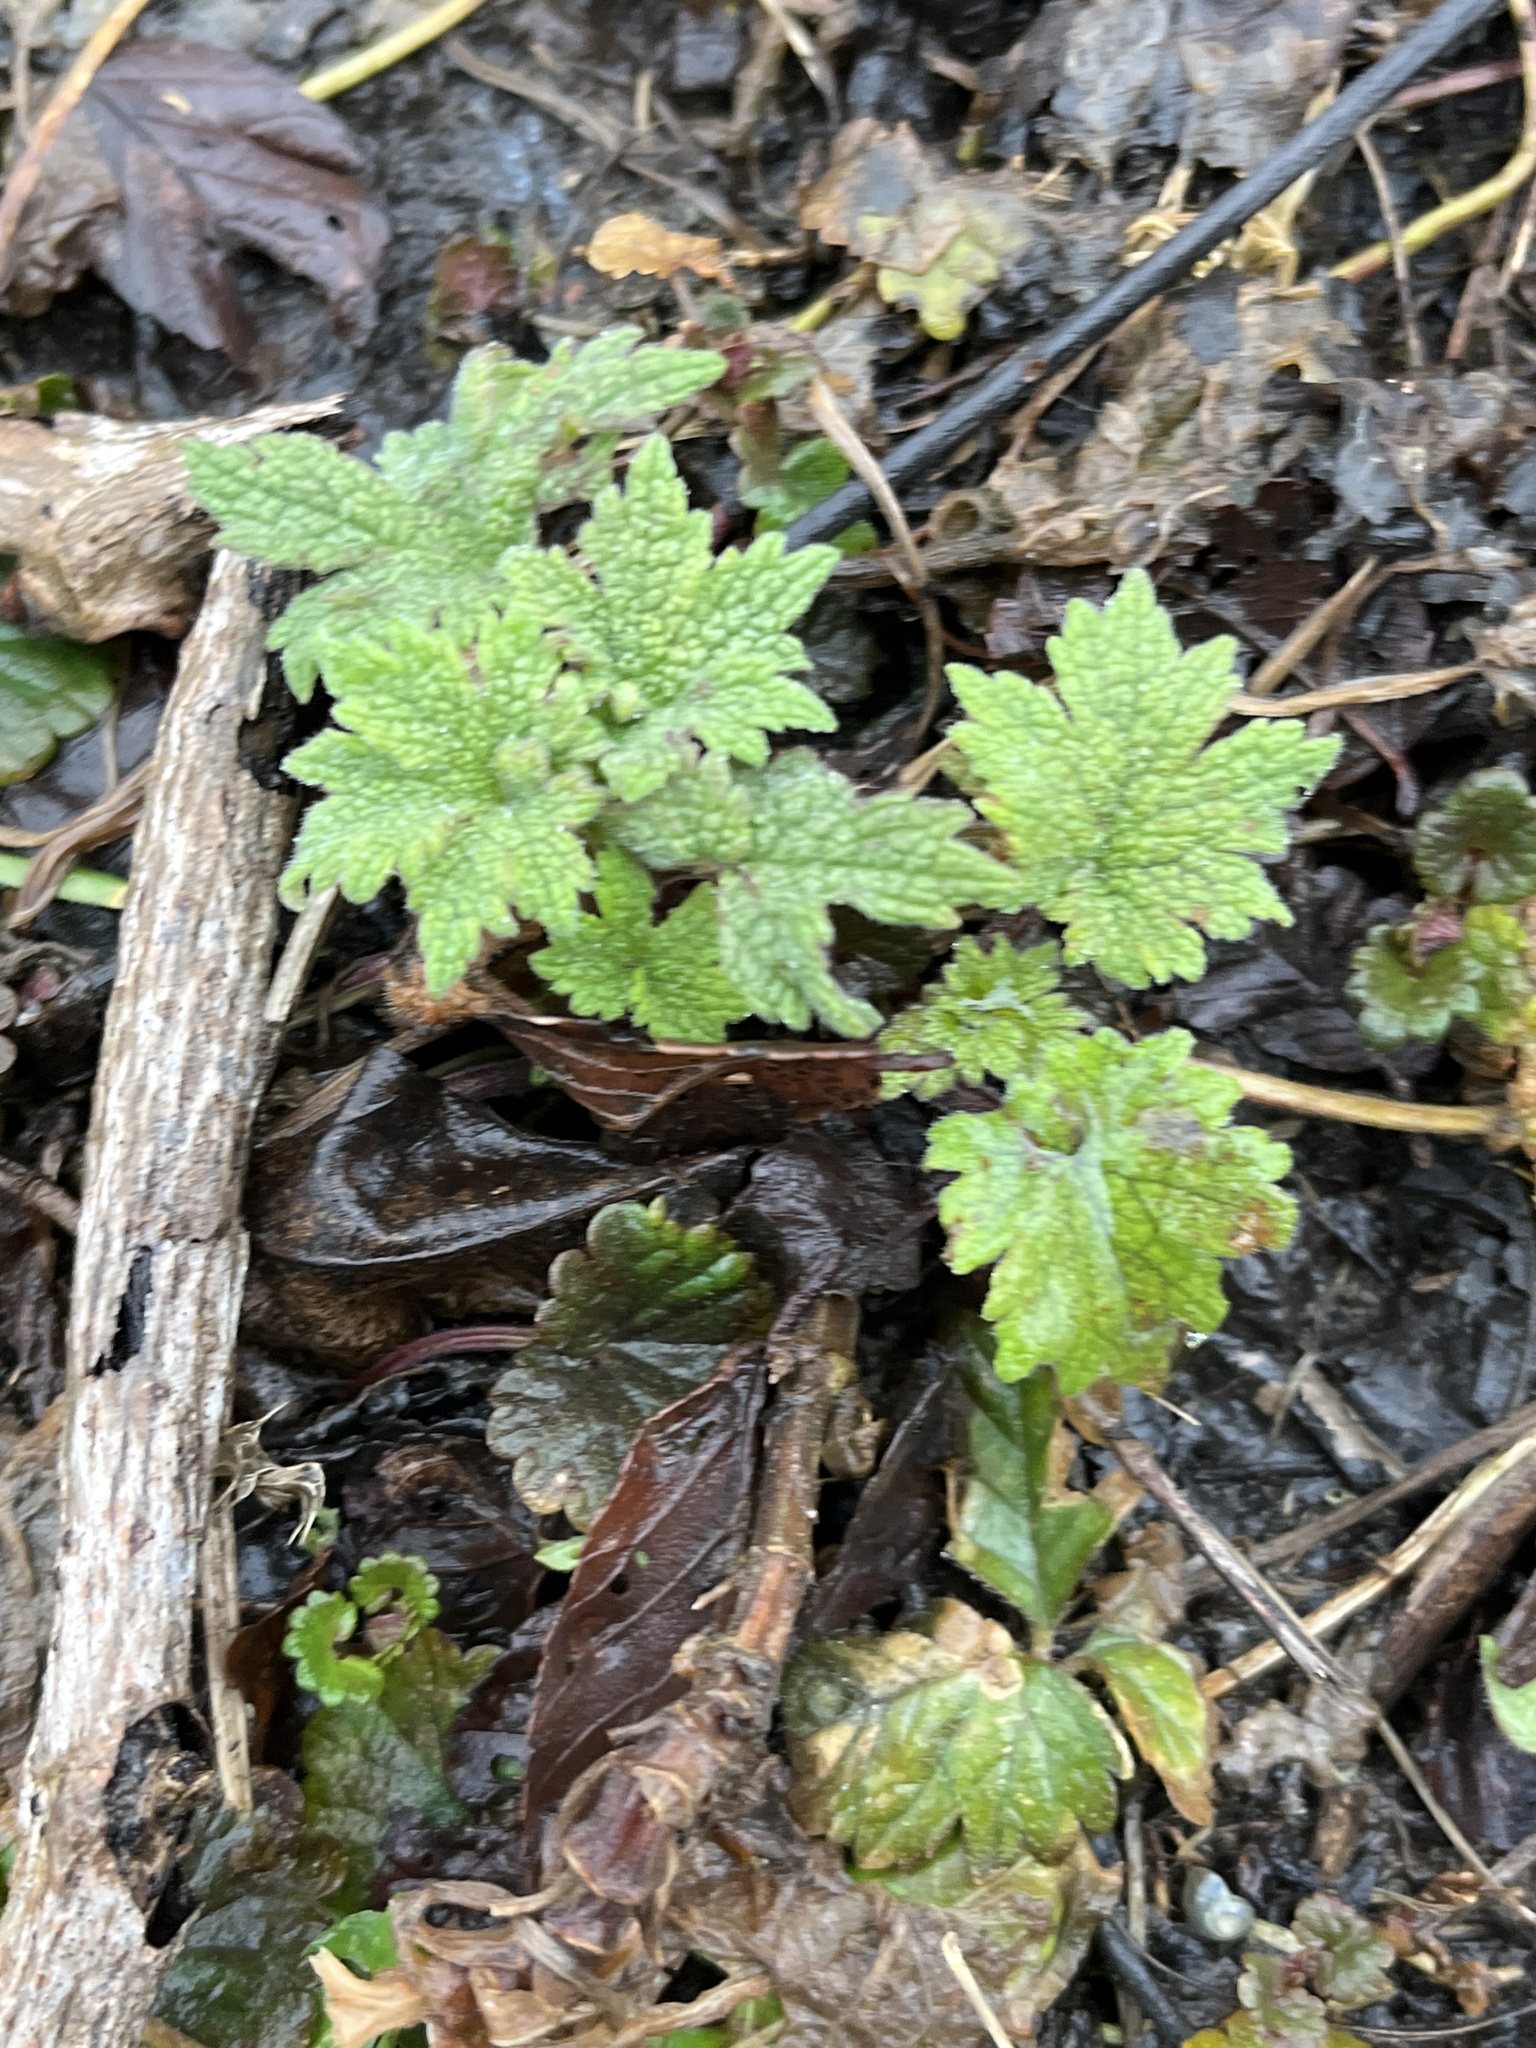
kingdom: Plantae
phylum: Tracheophyta
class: Magnoliopsida
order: Lamiales
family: Lamiaceae
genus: Leonurus
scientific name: Leonurus cardiaca
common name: Motherwort
